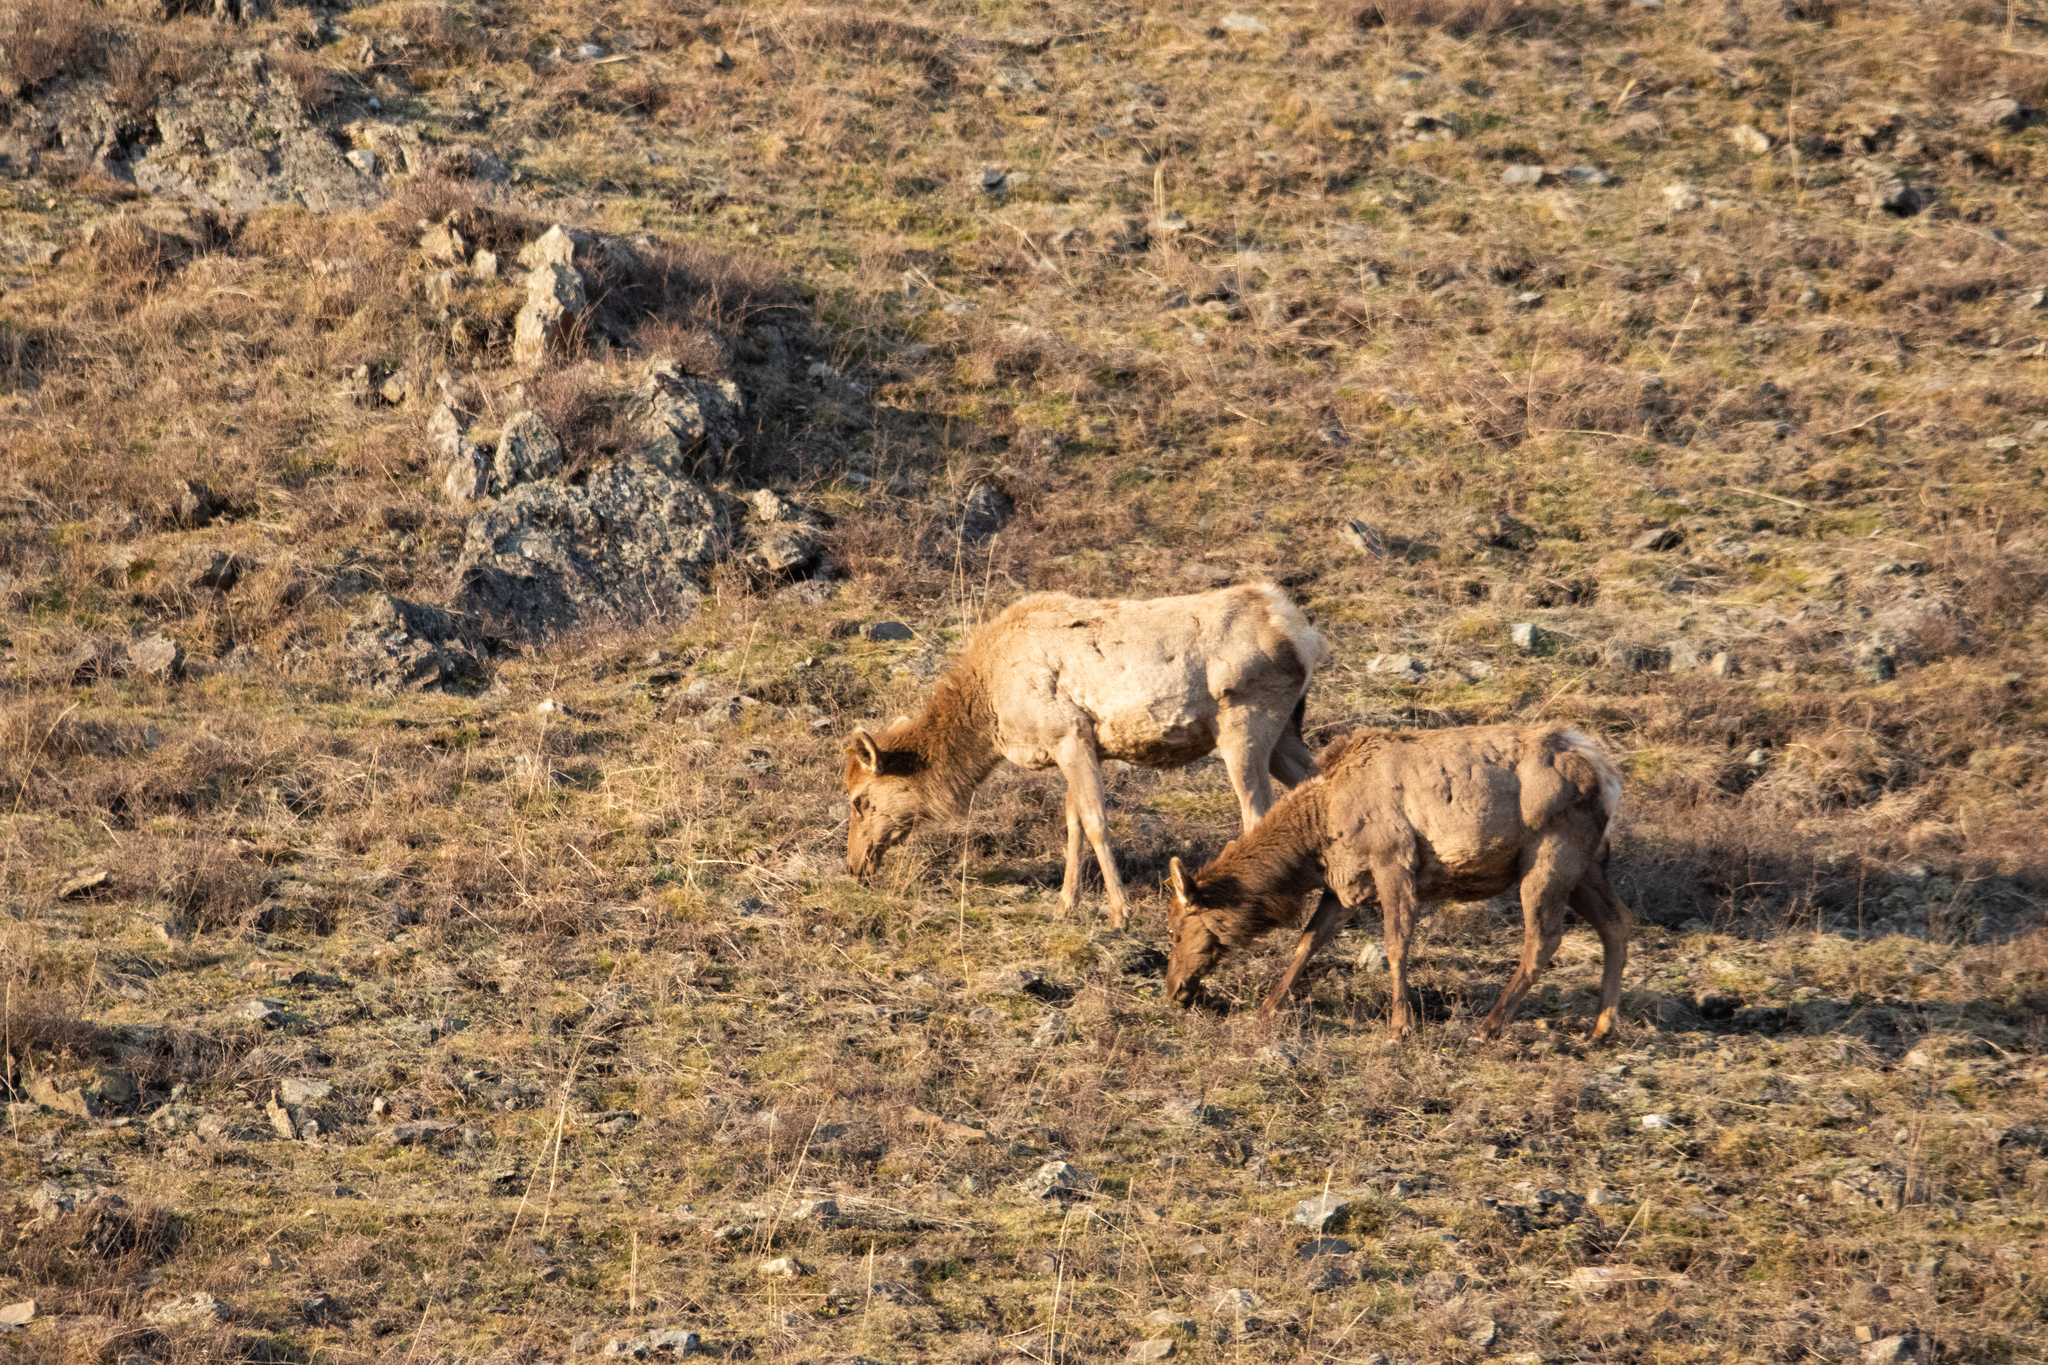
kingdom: Animalia
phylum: Chordata
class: Mammalia
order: Artiodactyla
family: Cervidae
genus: Cervus
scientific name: Cervus elaphus
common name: Red deer
